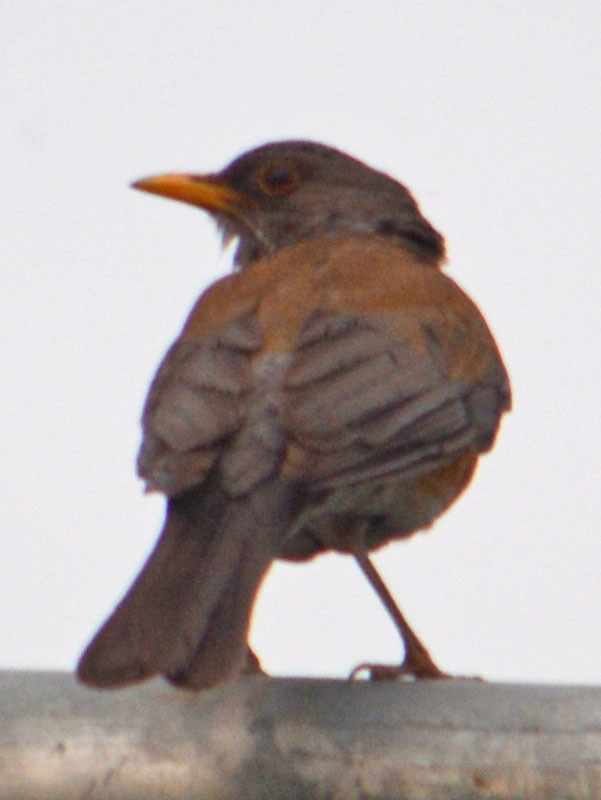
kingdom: Animalia
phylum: Chordata
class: Aves
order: Passeriformes
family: Turdidae
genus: Turdus
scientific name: Turdus rufopalliatus
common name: Rufous-backed robin
